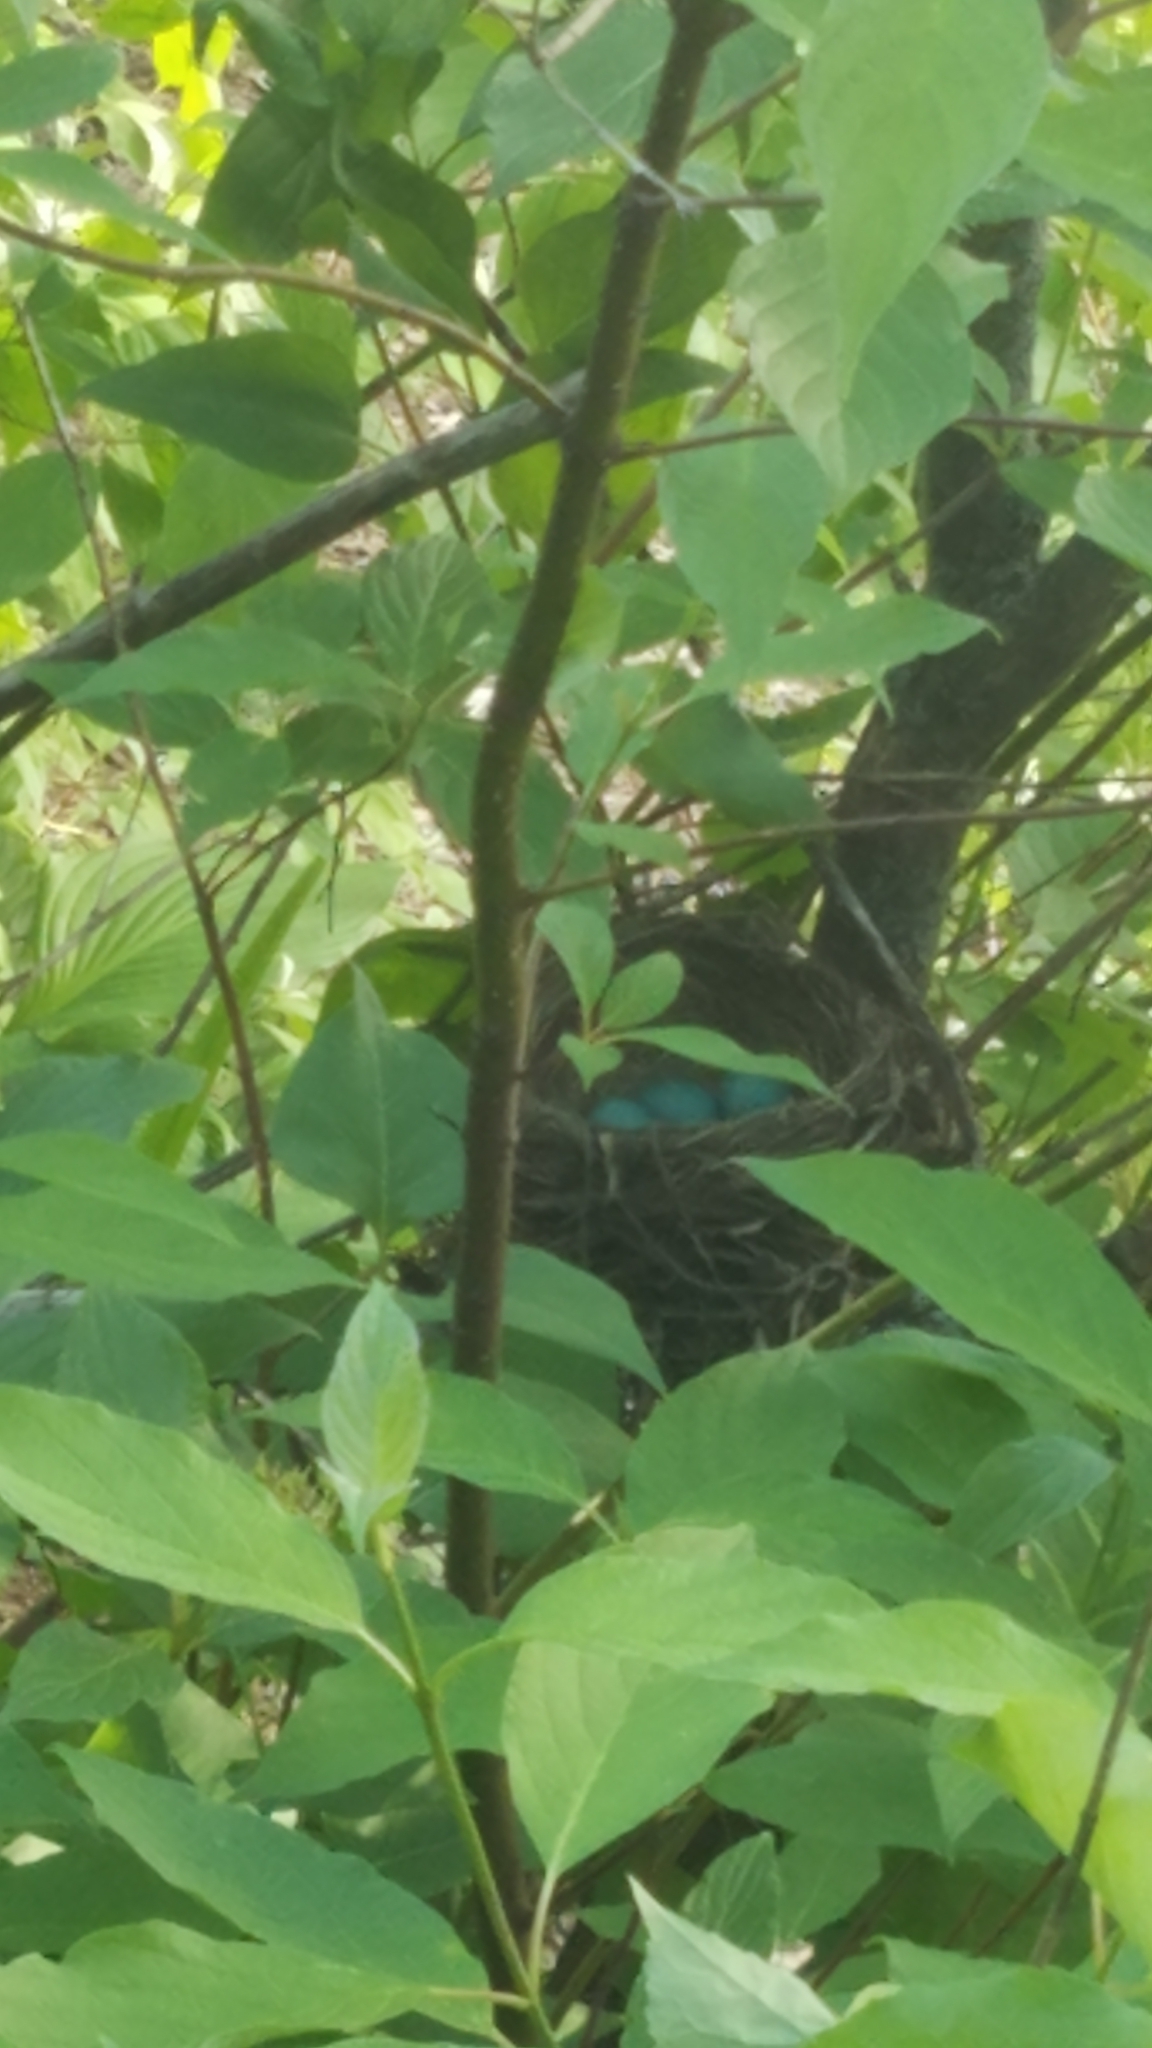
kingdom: Animalia
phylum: Chordata
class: Aves
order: Passeriformes
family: Turdidae
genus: Turdus
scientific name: Turdus migratorius
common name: American robin
